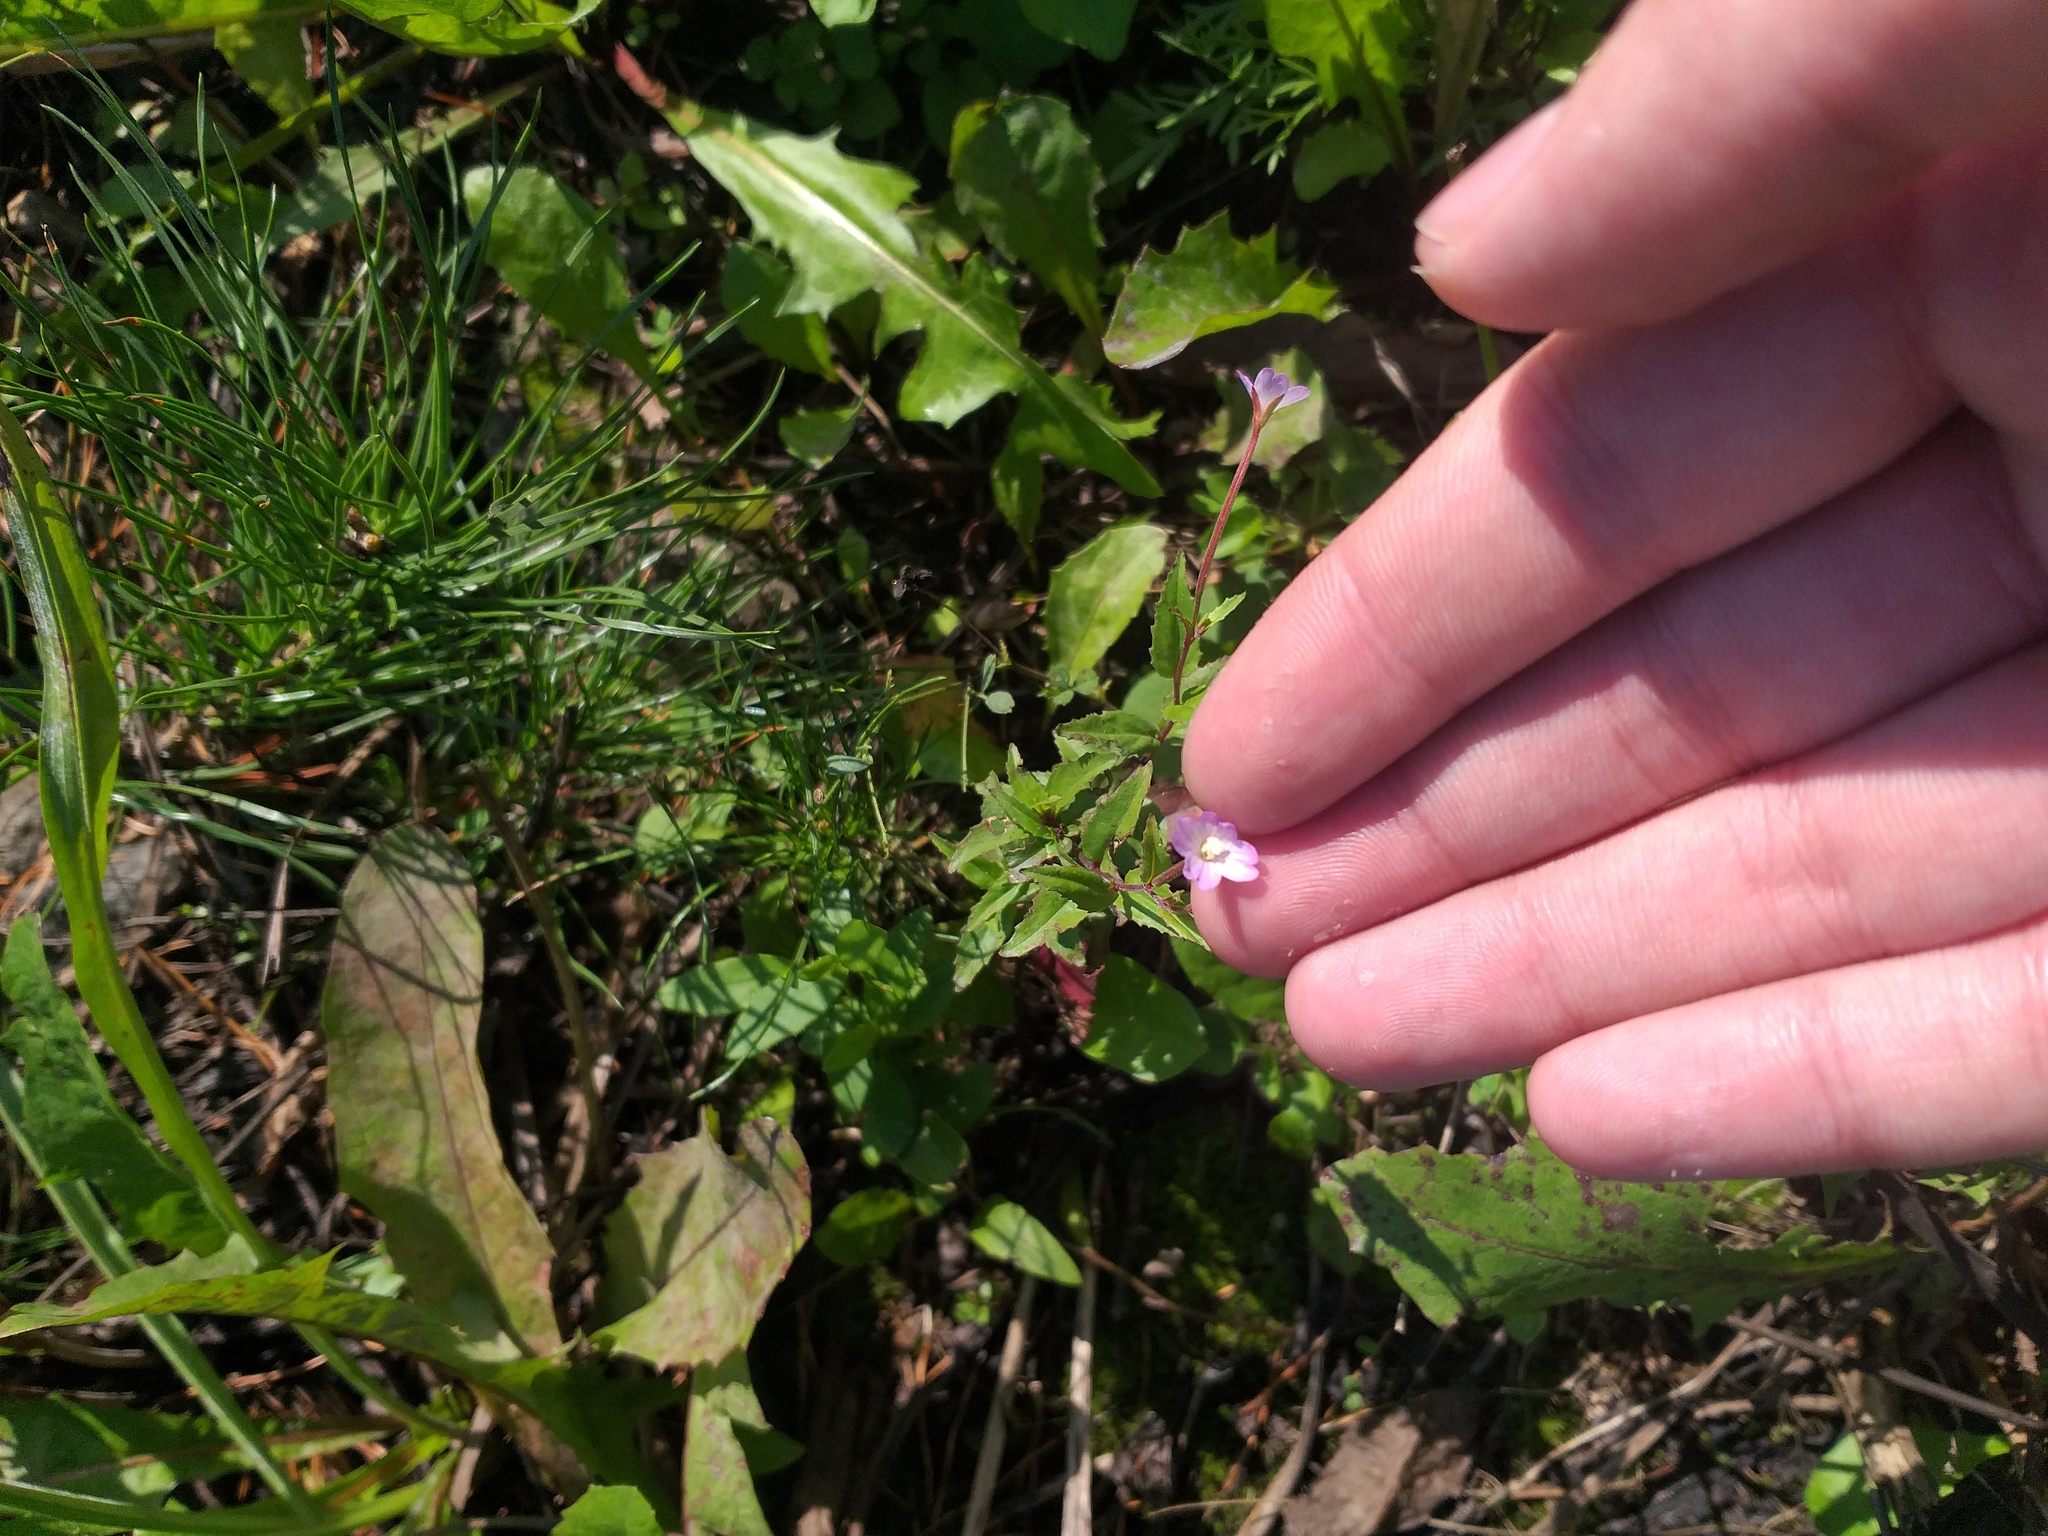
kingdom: Plantae
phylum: Tracheophyta
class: Magnoliopsida
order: Myrtales
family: Onagraceae
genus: Epilobium
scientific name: Epilobium montanum
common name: Broad-leaved willowherb
